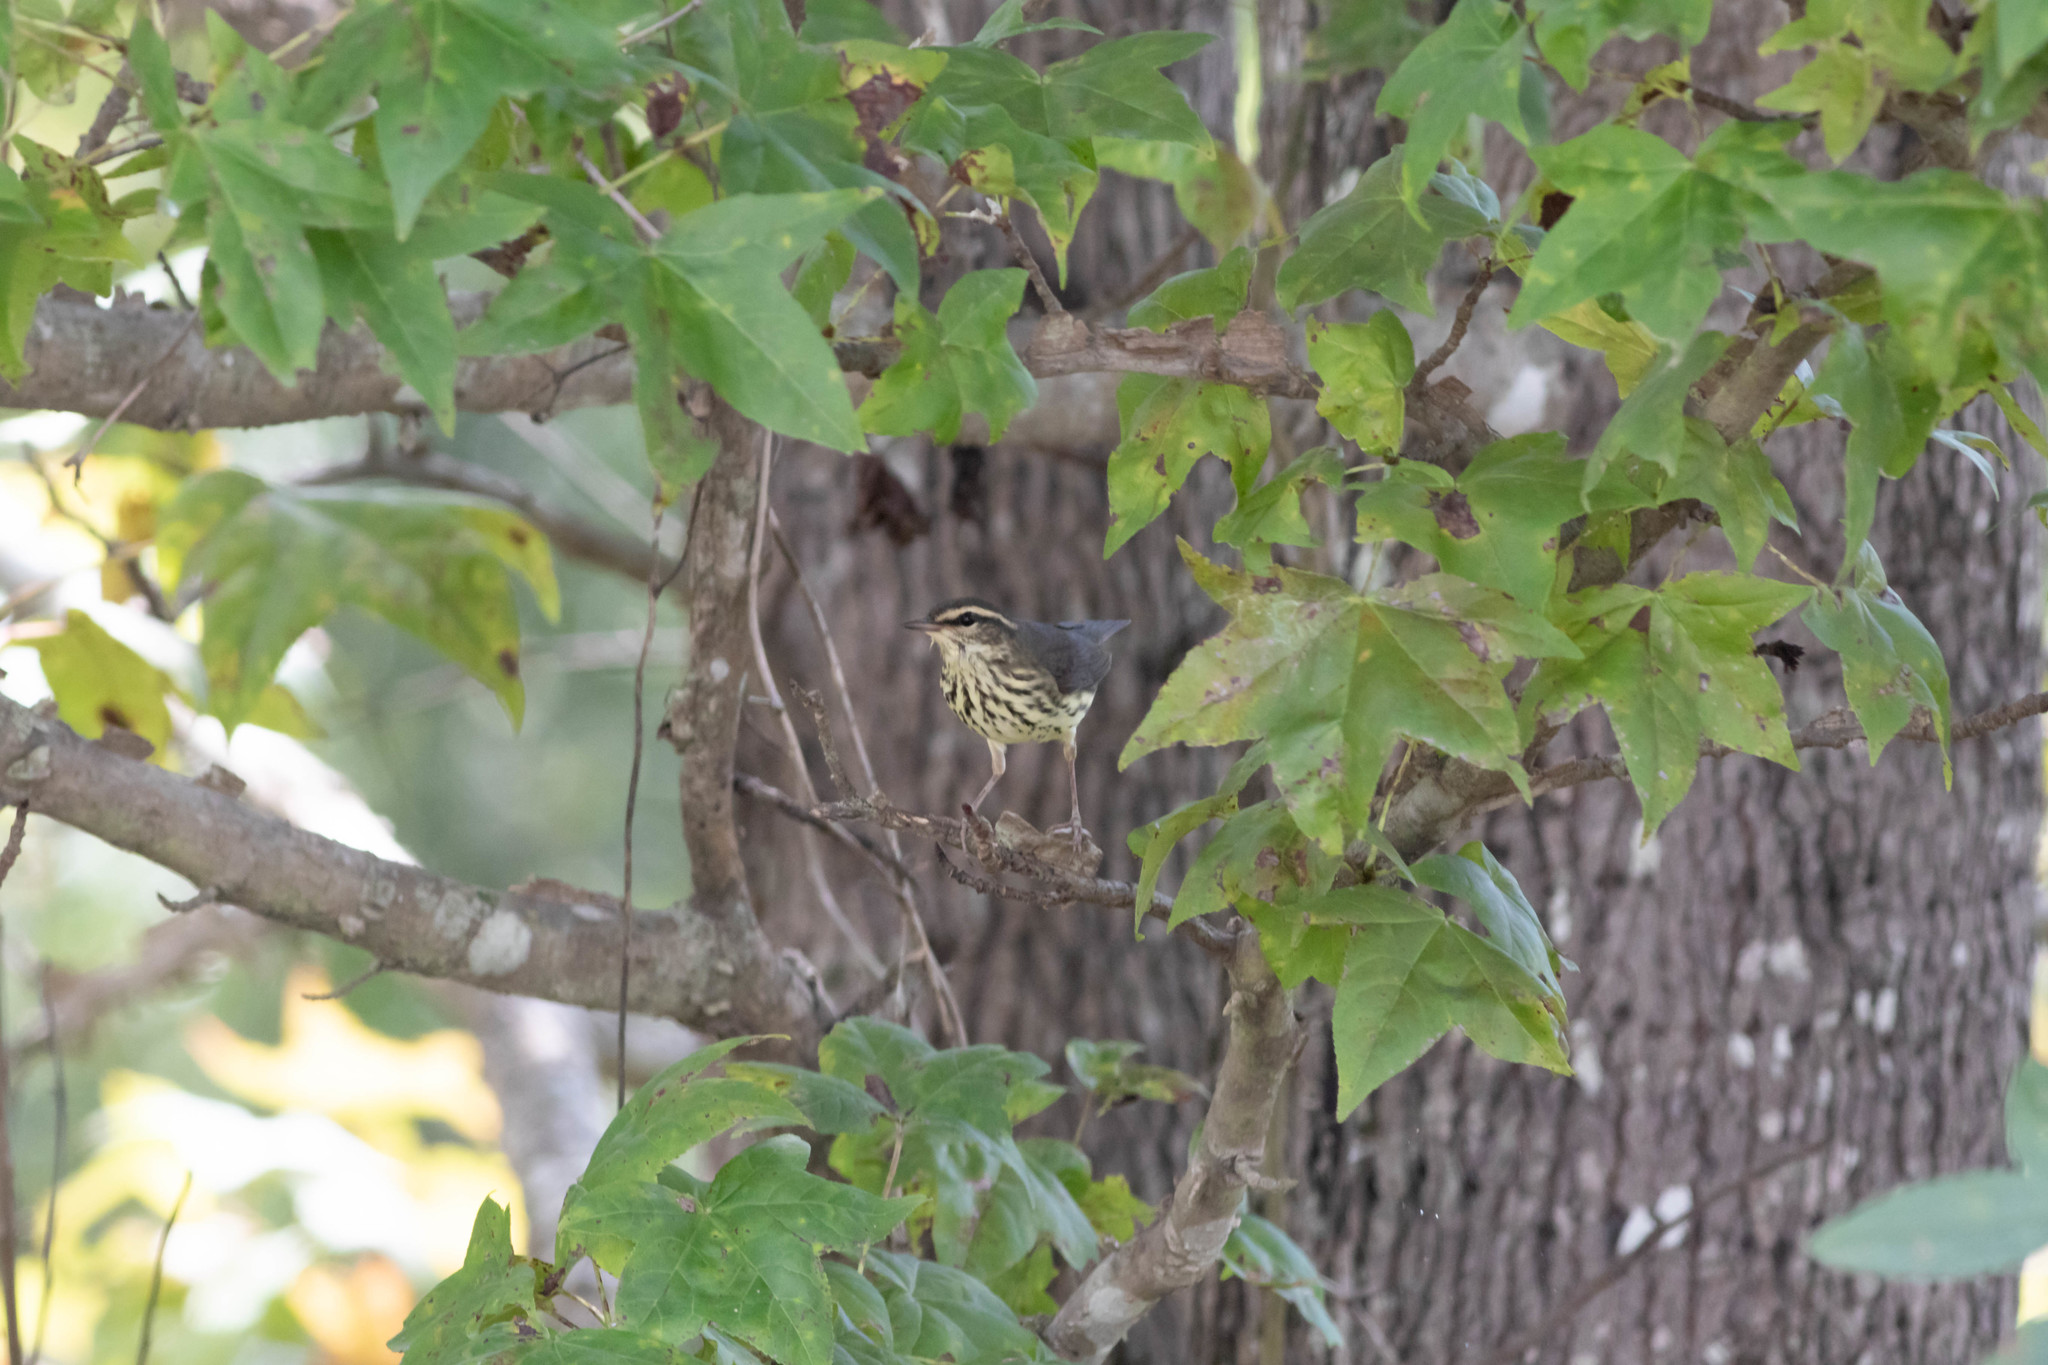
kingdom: Animalia
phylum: Chordata
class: Aves
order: Passeriformes
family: Parulidae
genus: Parkesia
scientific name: Parkesia noveboracensis
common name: Northern waterthrush
